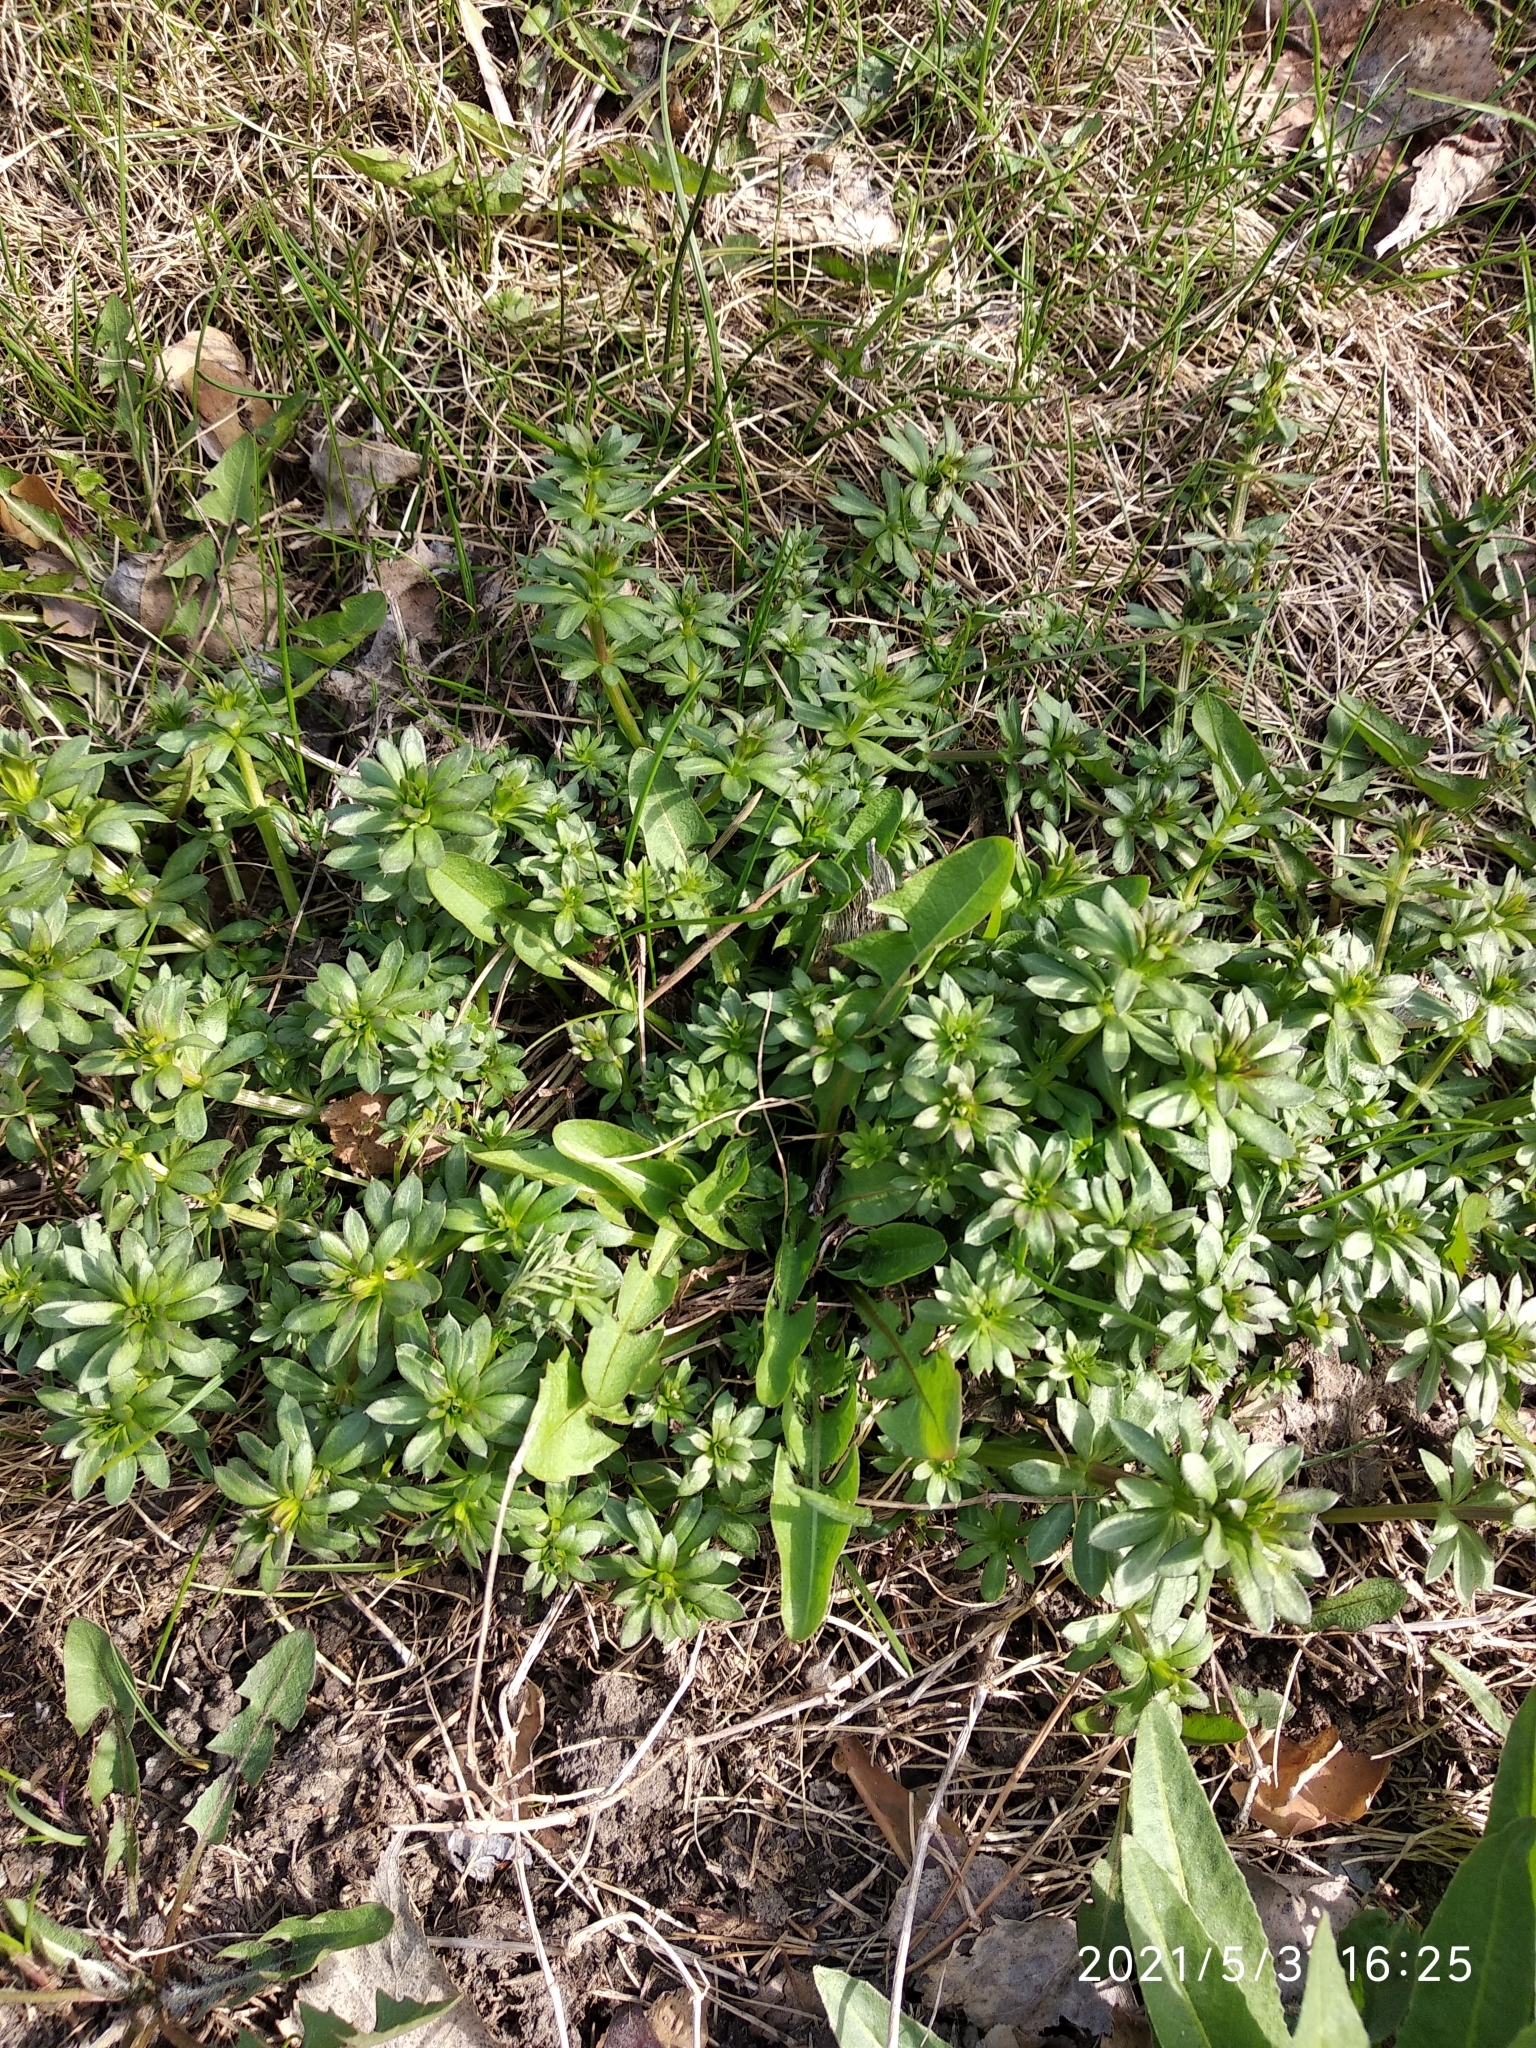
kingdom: Plantae
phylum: Tracheophyta
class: Magnoliopsida
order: Gentianales
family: Rubiaceae
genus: Galium
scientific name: Galium mollugo
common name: Hedge bedstraw
